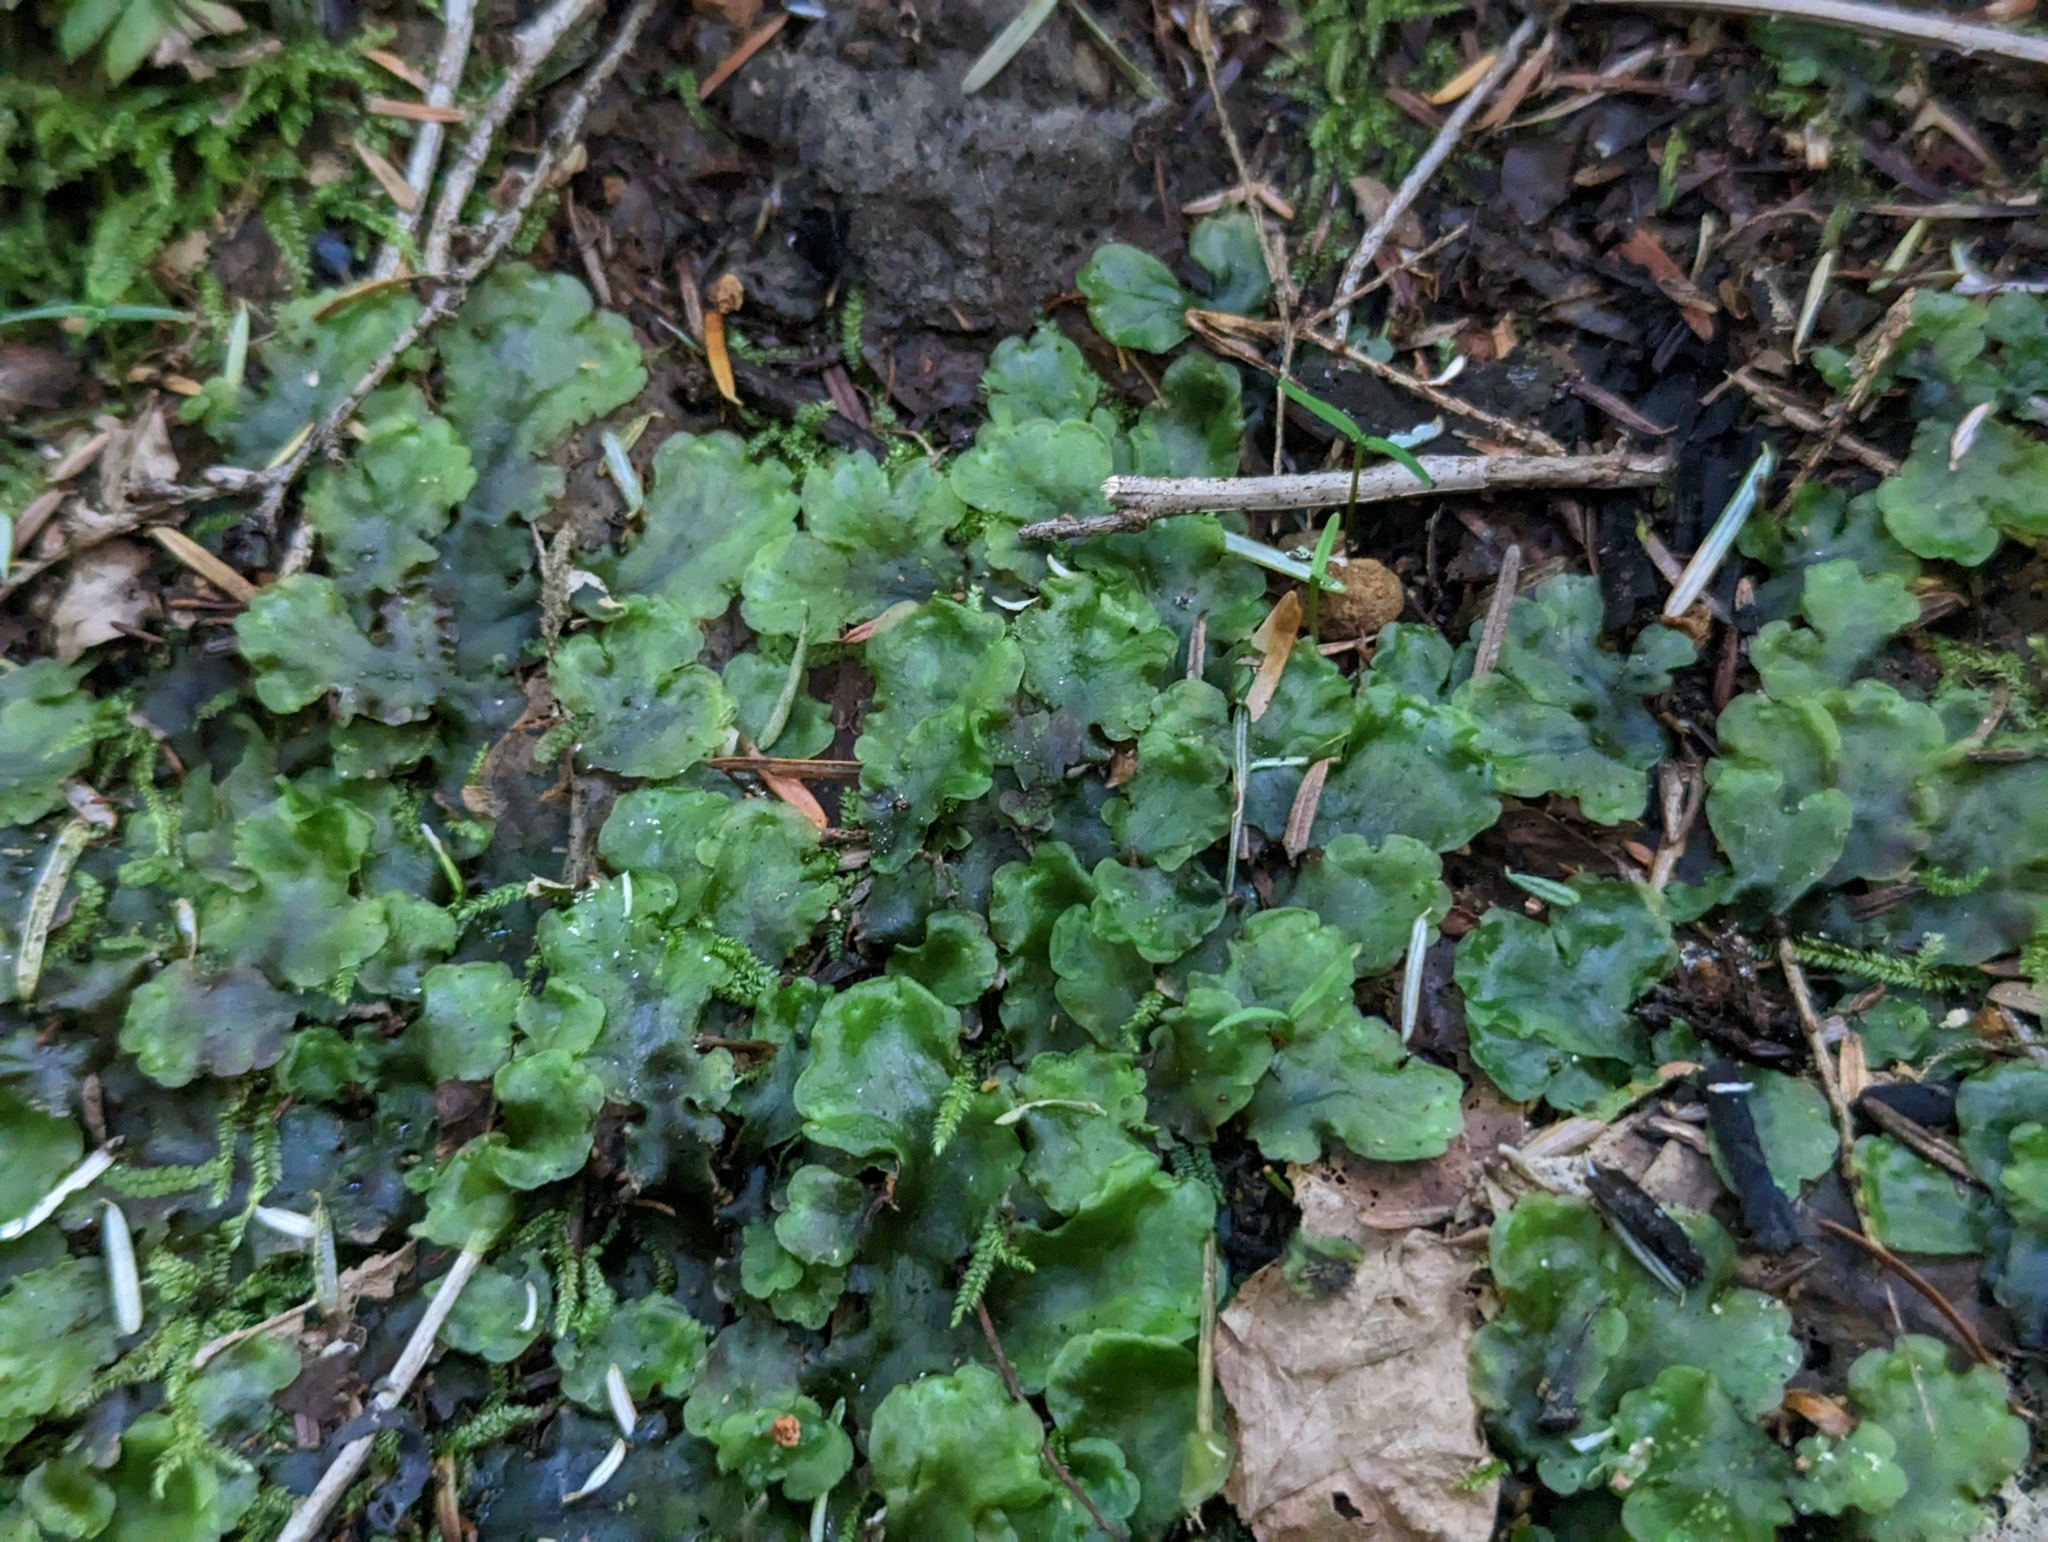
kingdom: Plantae
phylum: Marchantiophyta
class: Jungermanniopsida
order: Pelliales
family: Pelliaceae
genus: Pellia
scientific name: Pellia neesiana
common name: Nees  pellia
